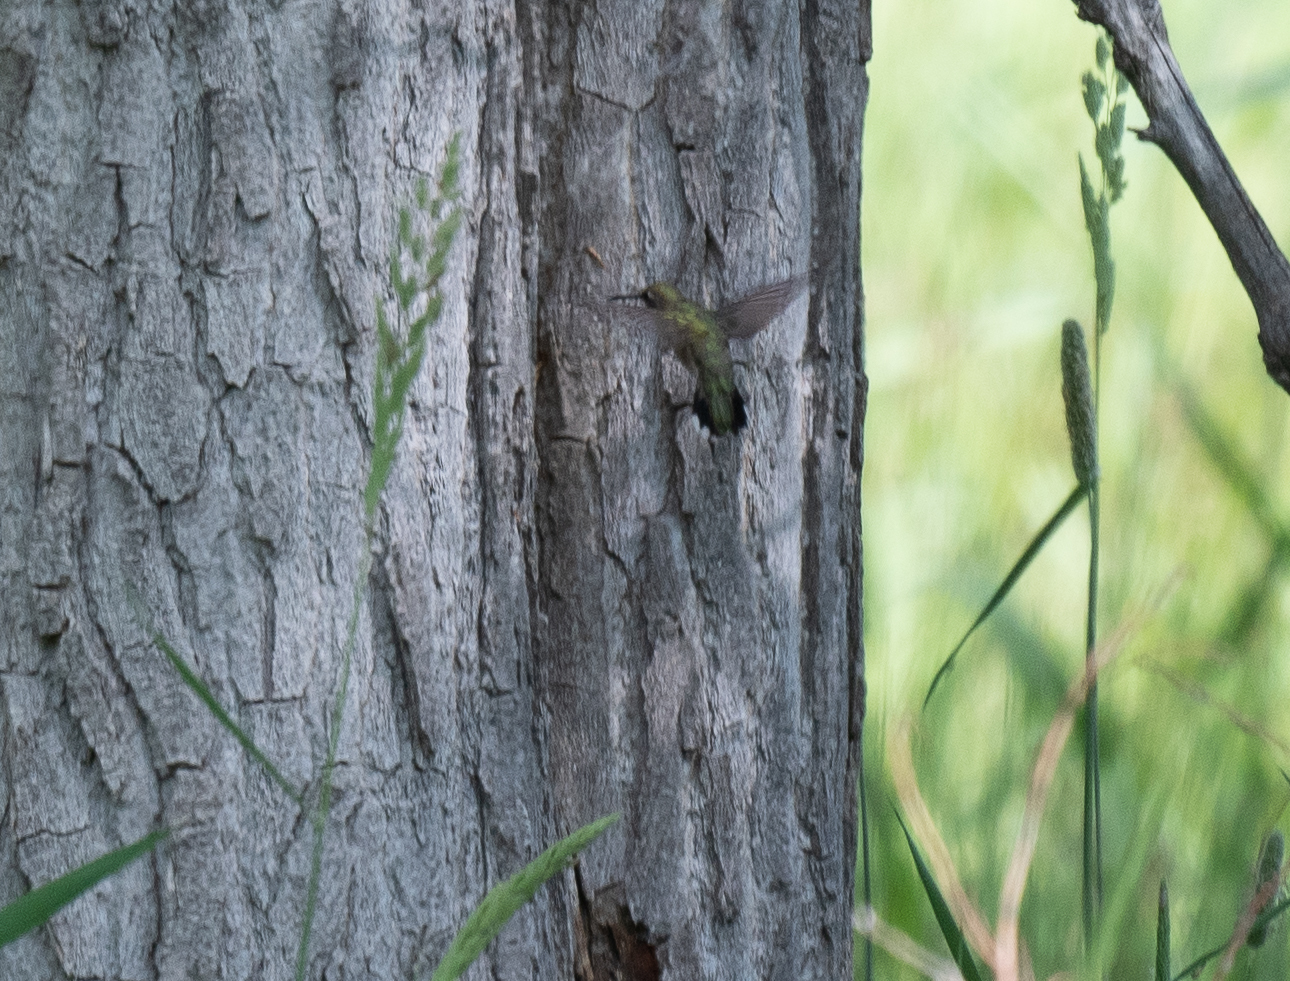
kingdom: Animalia
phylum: Chordata
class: Aves
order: Apodiformes
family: Trochilidae
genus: Archilochus
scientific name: Archilochus alexandri
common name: Black-chinned hummingbird
